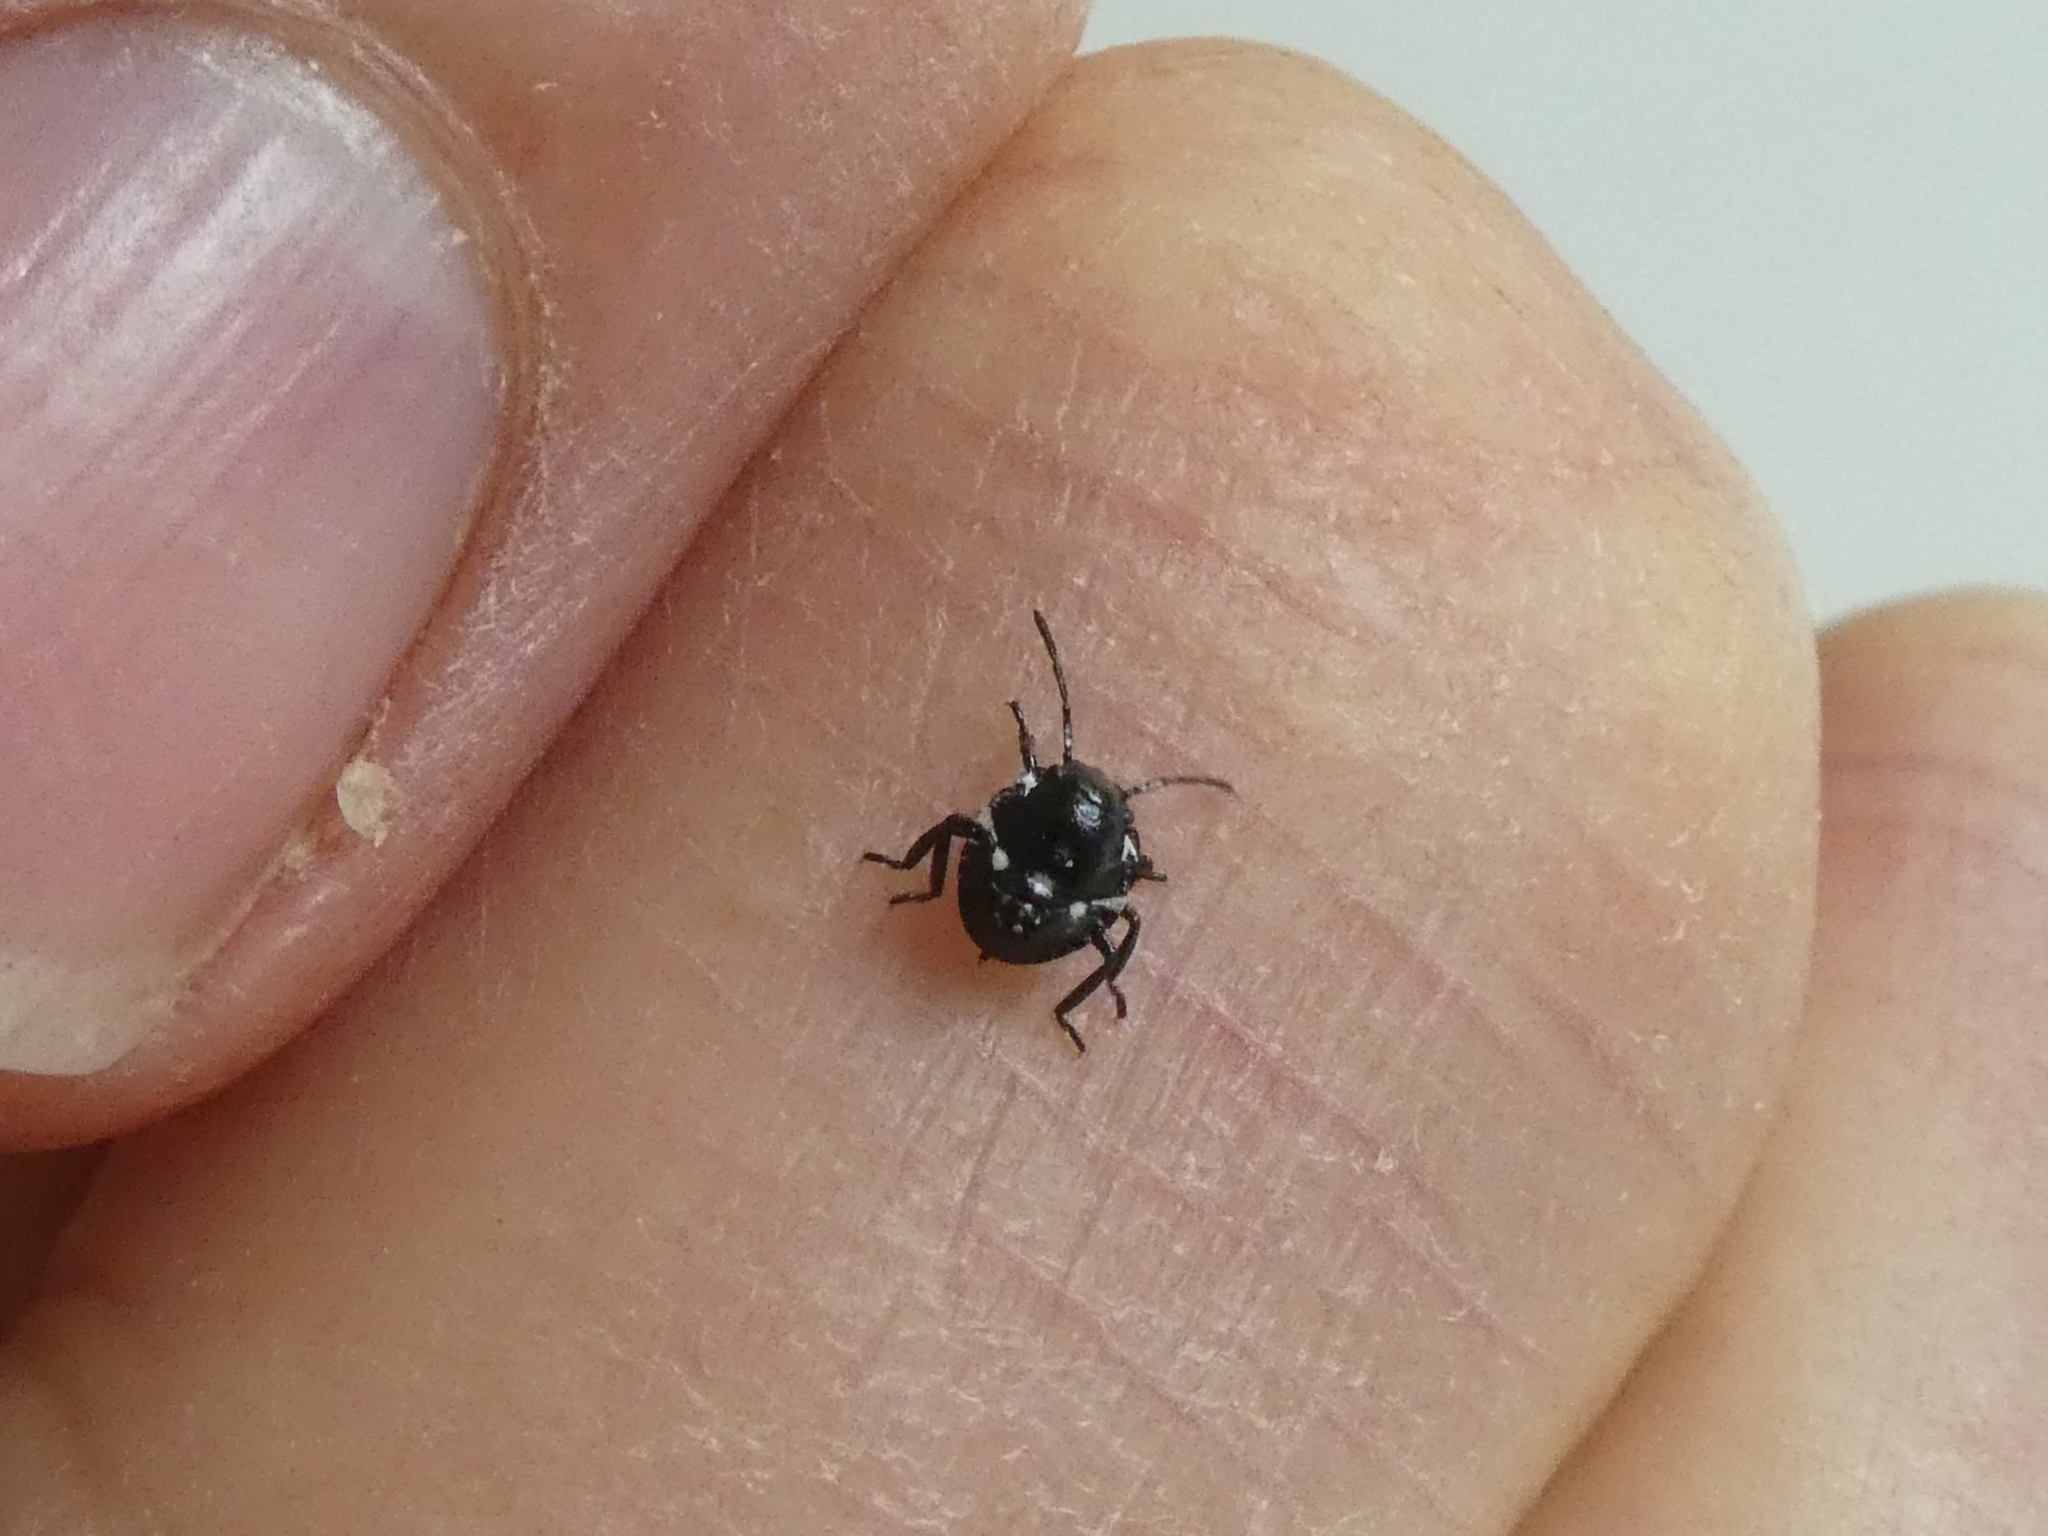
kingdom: Animalia
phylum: Arthropoda
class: Insecta
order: Hemiptera
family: Pentatomidae
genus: Glaucias
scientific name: Glaucias amyota
